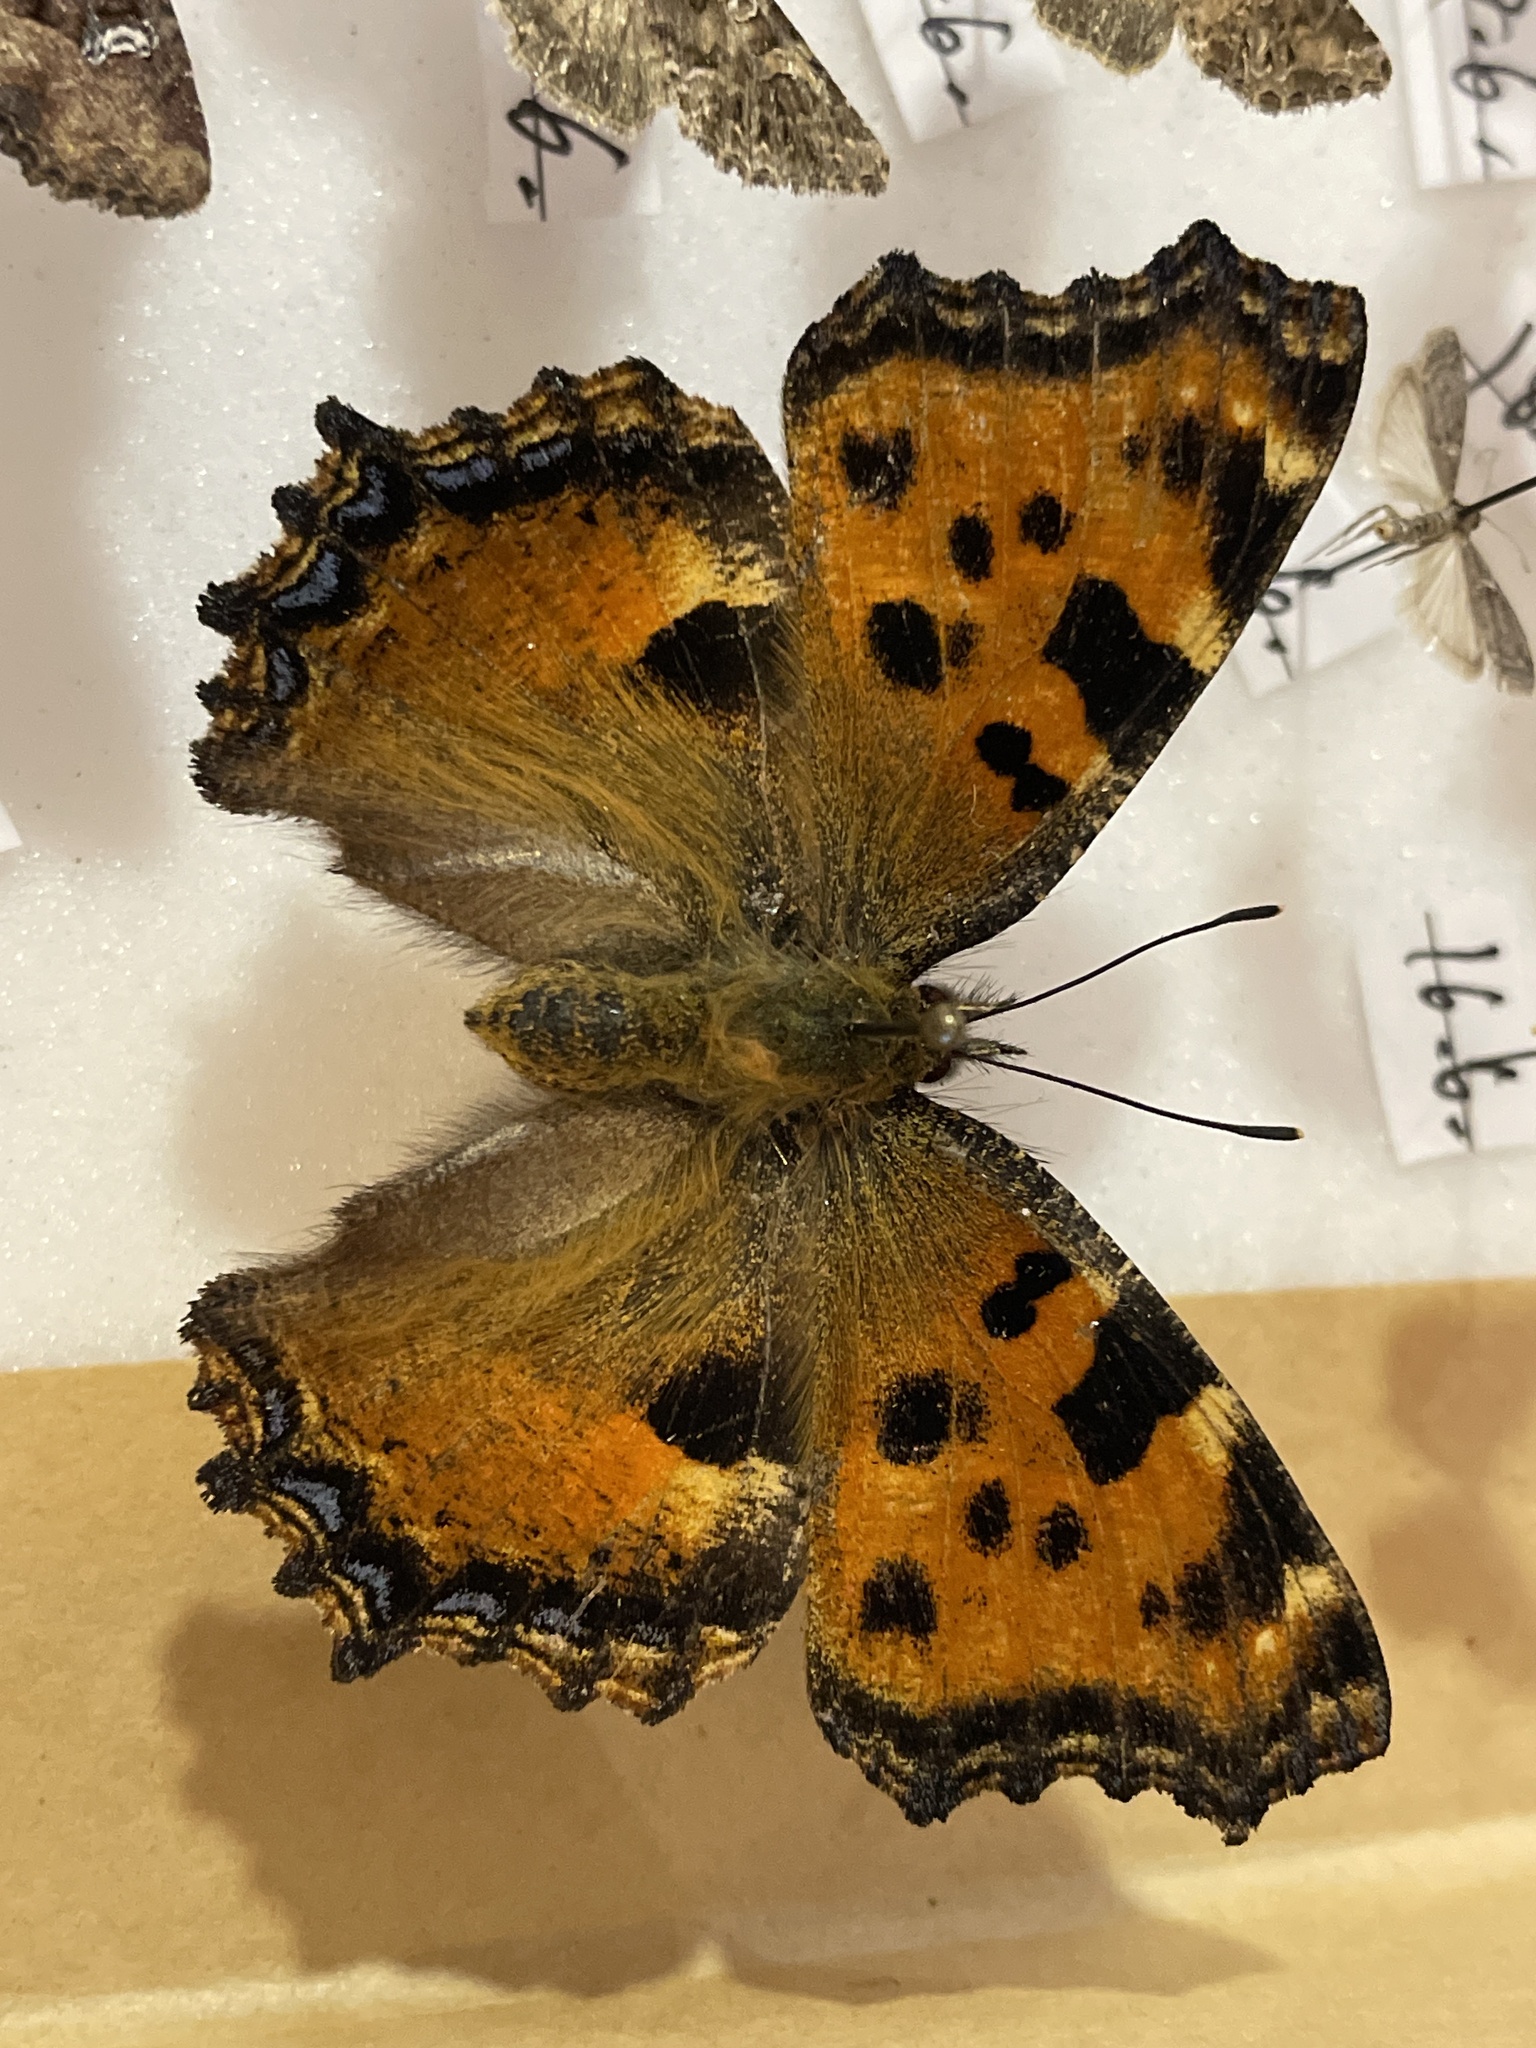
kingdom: Animalia
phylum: Arthropoda
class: Insecta
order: Lepidoptera
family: Nymphalidae
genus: Nymphalis
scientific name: Nymphalis polychloros
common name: Large tortoiseshell
